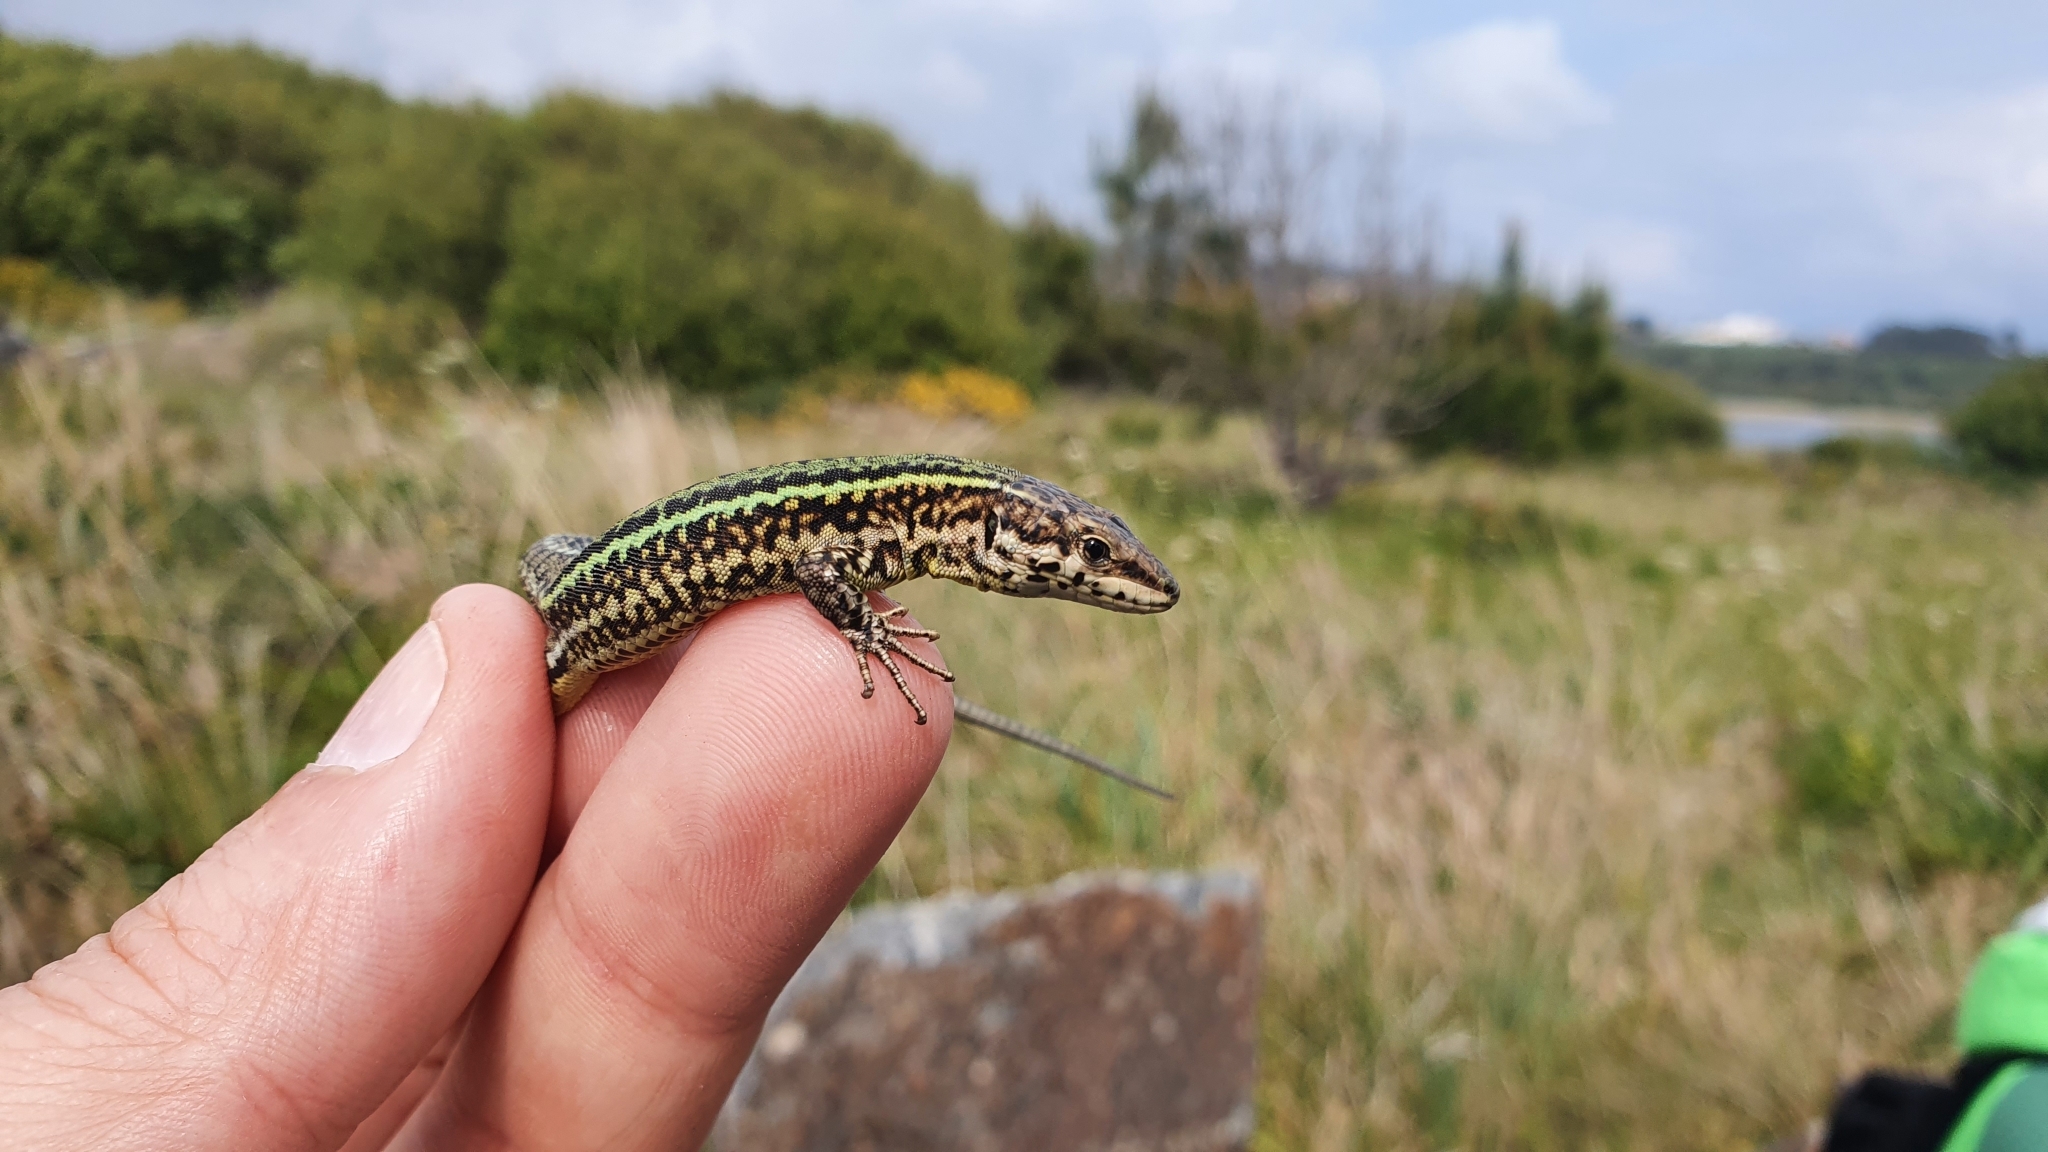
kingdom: Animalia
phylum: Chordata
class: Squamata
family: Lacertidae
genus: Podarcis
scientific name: Podarcis bocagei
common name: Bocage's wall lizard
